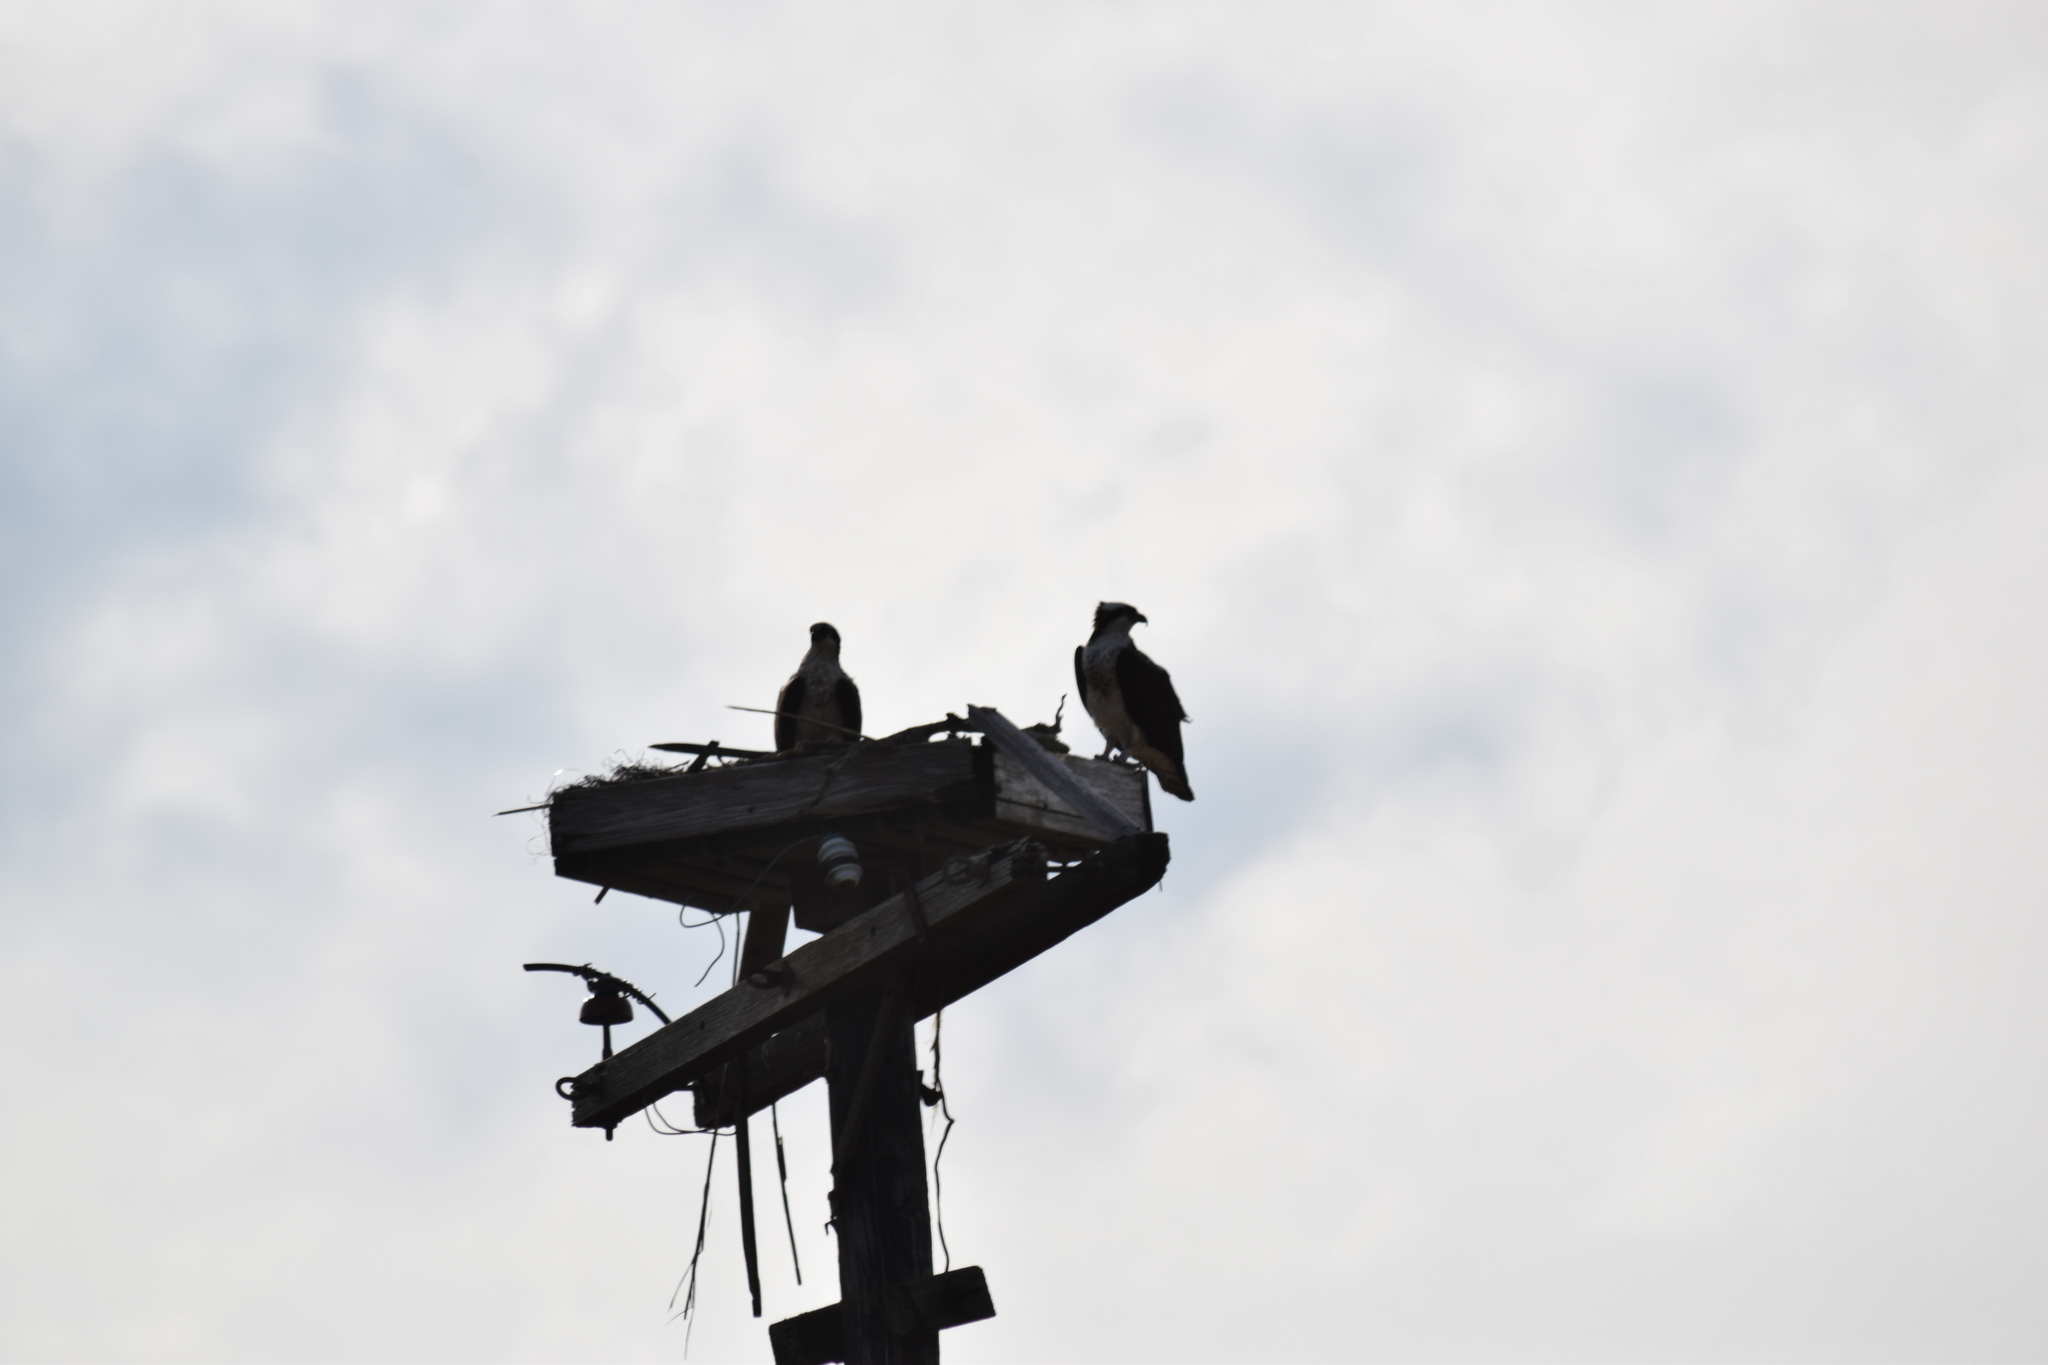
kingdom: Animalia
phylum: Chordata
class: Aves
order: Accipitriformes
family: Pandionidae
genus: Pandion
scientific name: Pandion haliaetus
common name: Osprey
